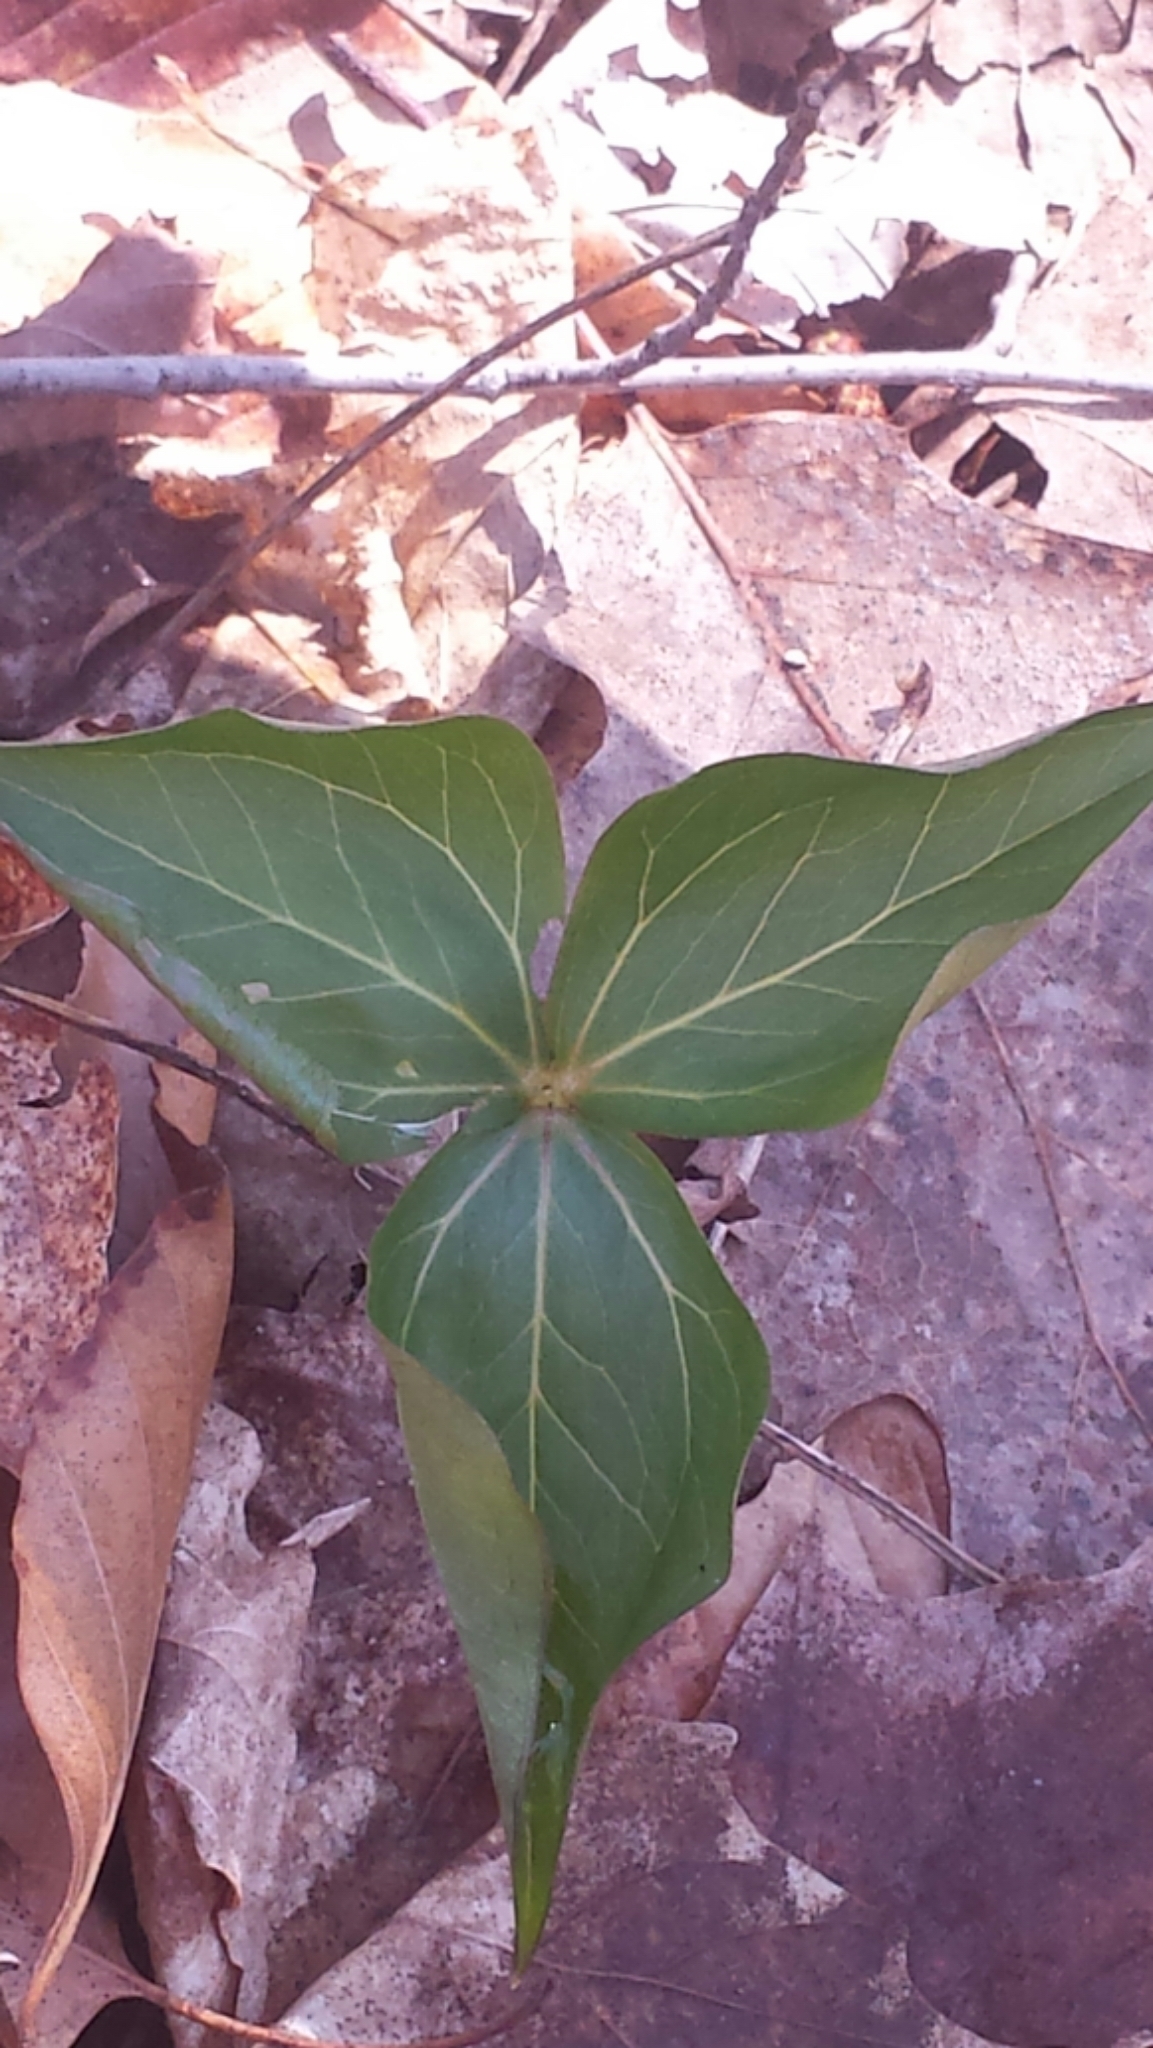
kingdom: Plantae
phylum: Tracheophyta
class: Liliopsida
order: Liliales
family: Melanthiaceae
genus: Trillium
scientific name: Trillium erectum
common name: Purple trillium
